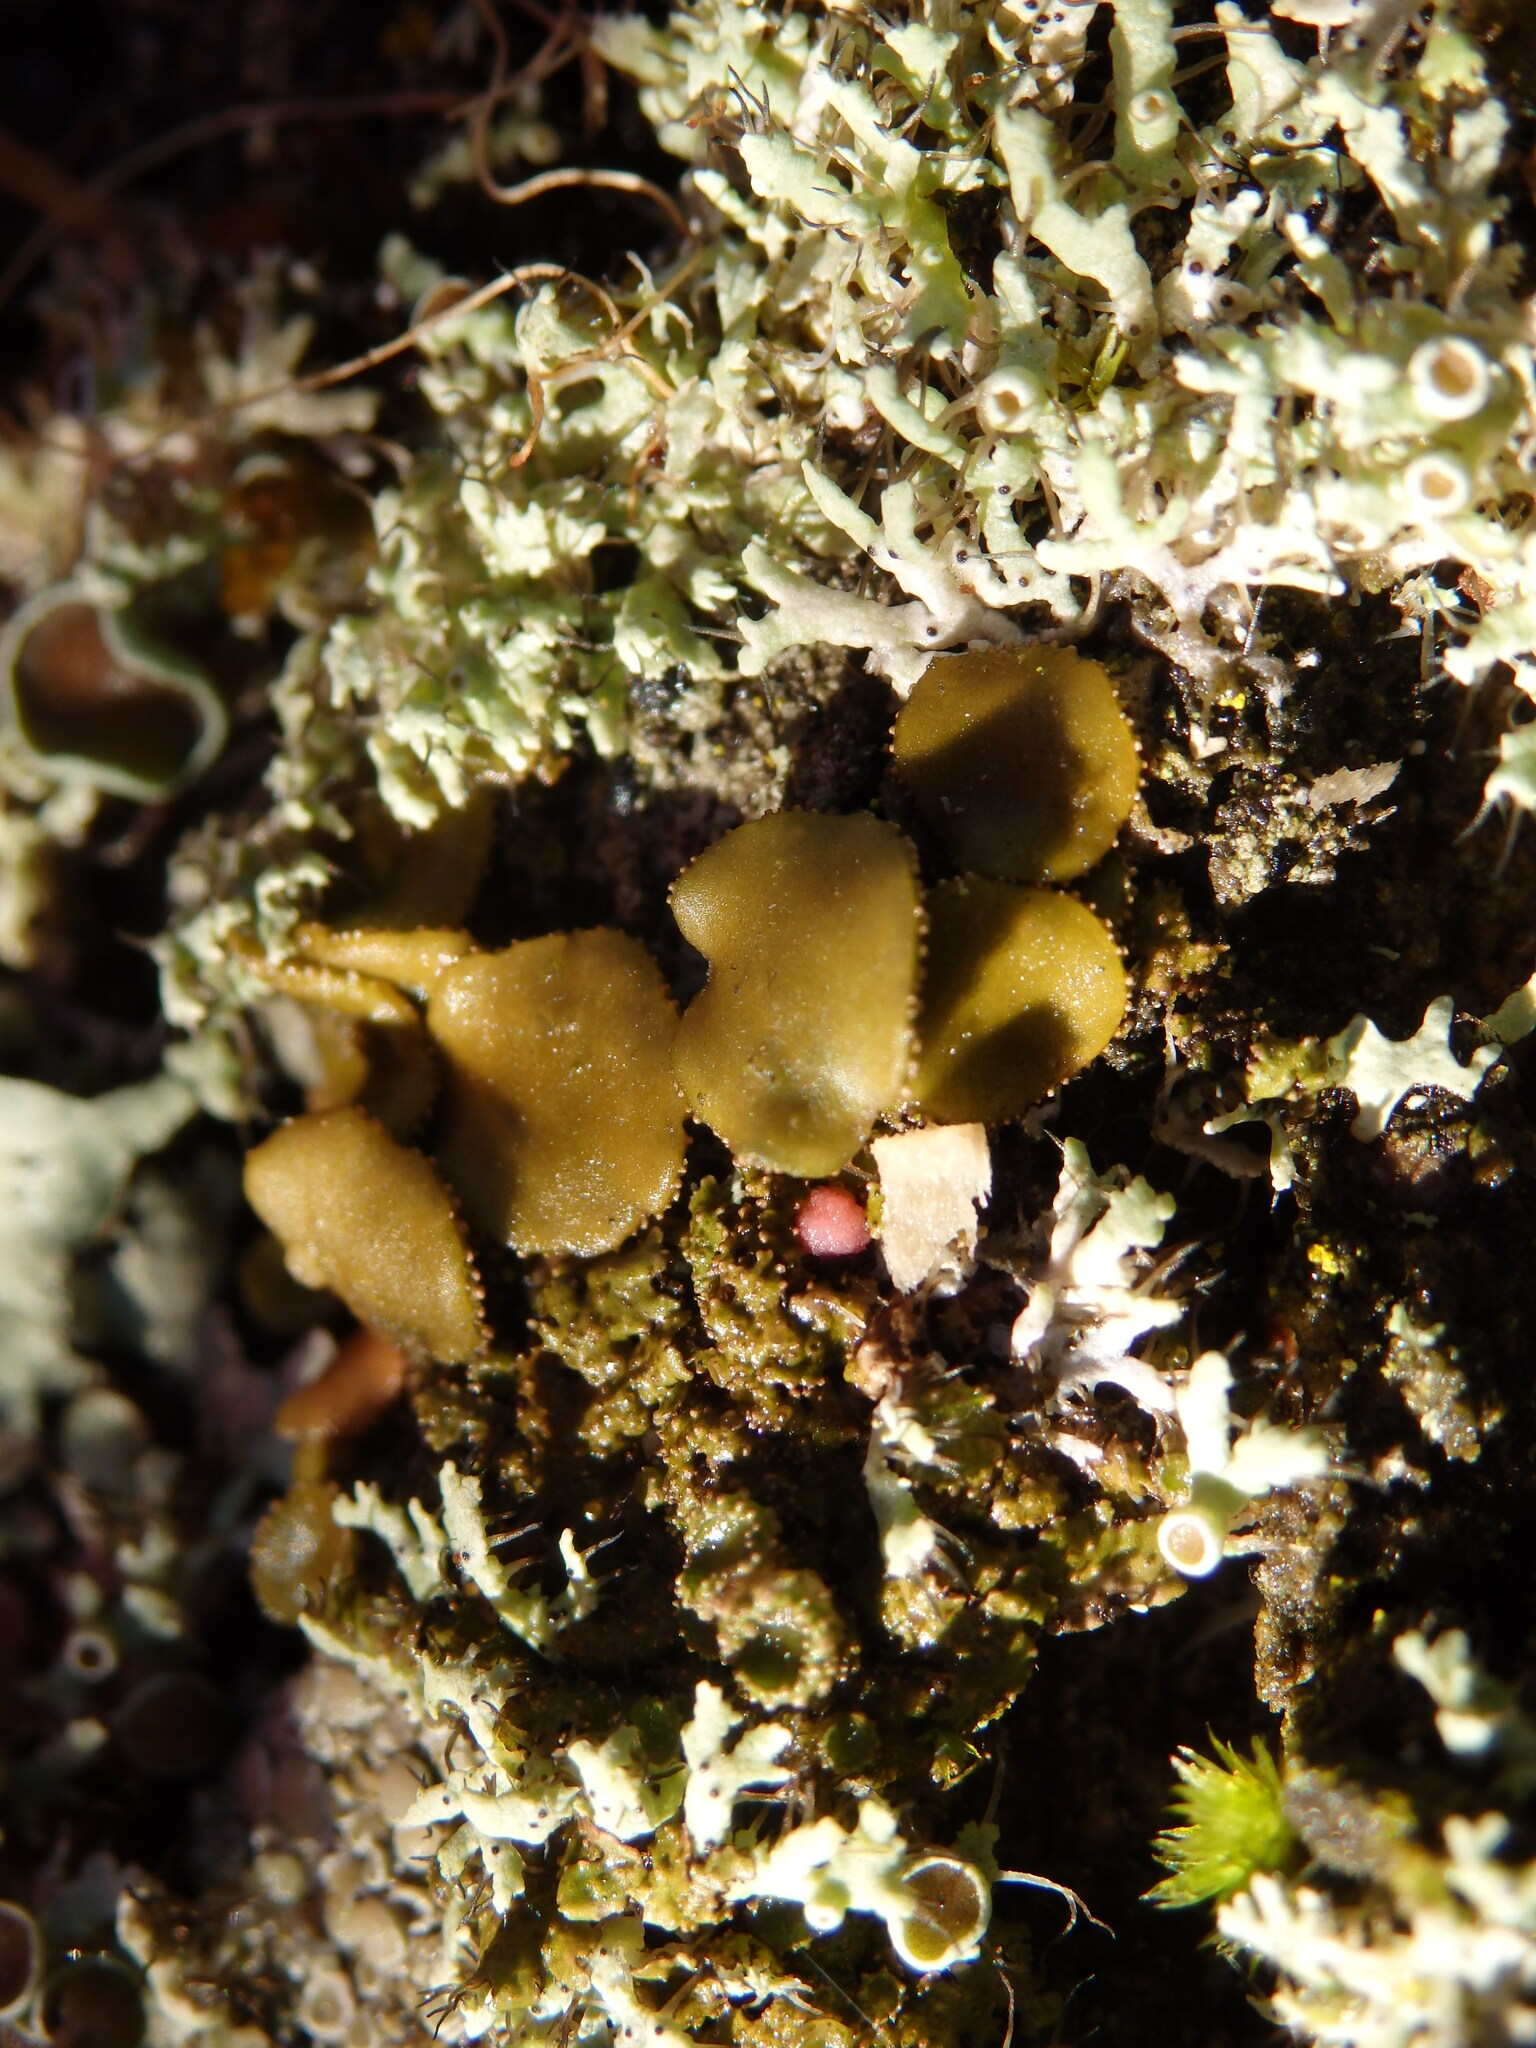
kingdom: Fungi
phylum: Ascomycota
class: Lecanoromycetes
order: Lecanorales
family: Parmeliaceae
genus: Melanohalea
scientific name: Melanohalea exasperata
